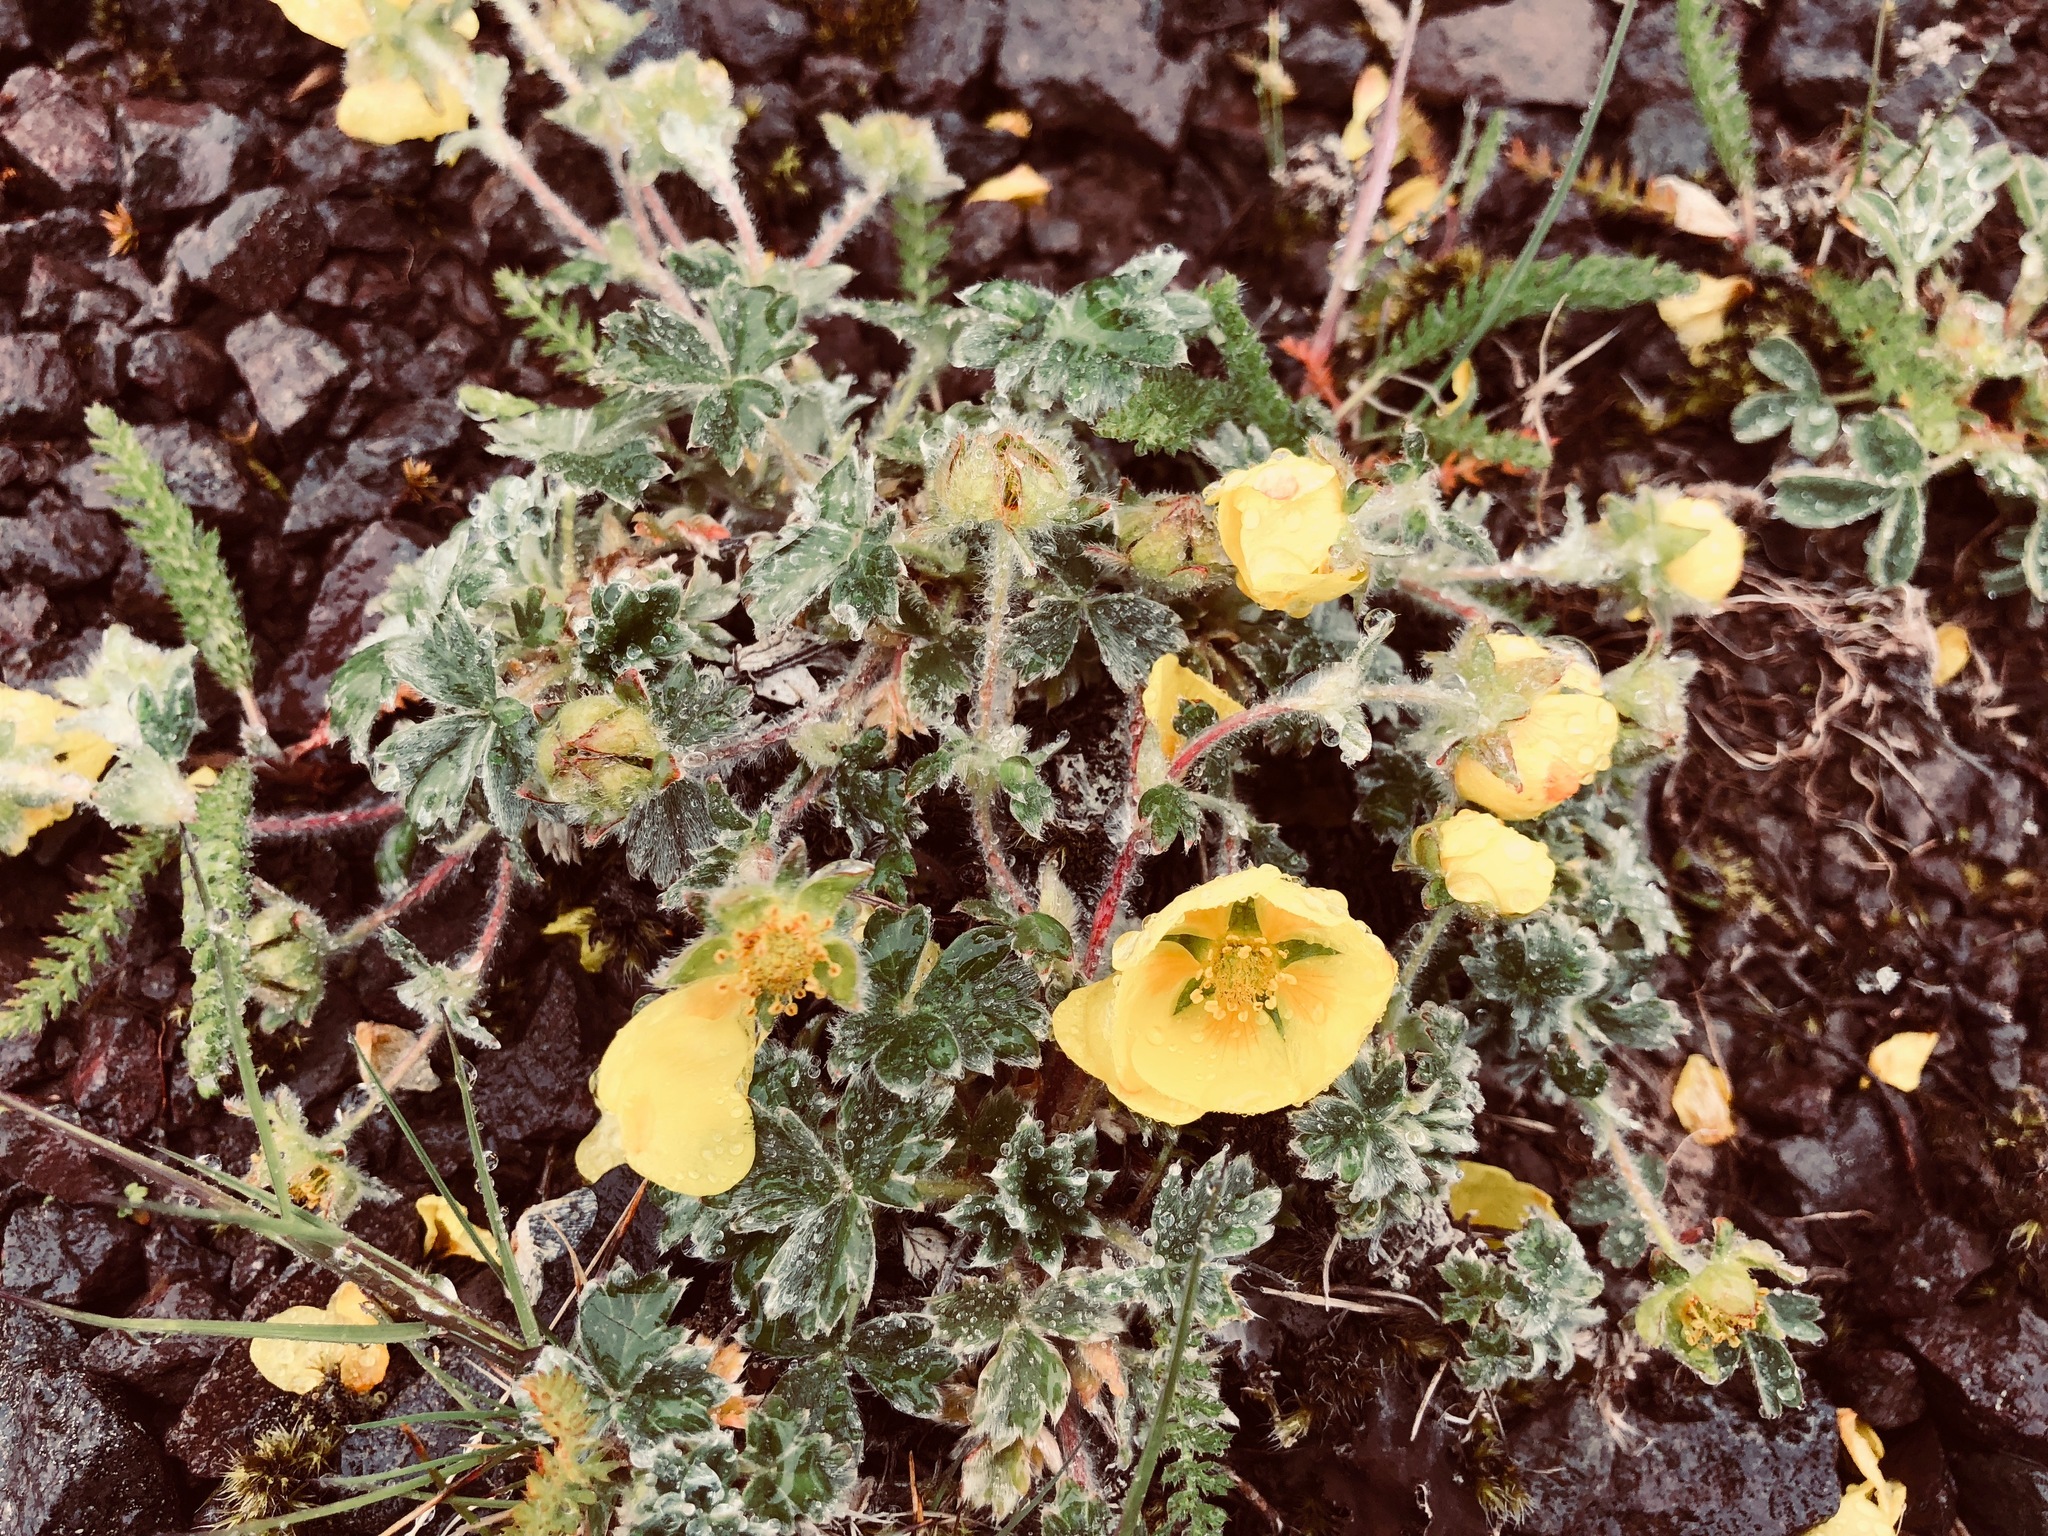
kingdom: Plantae
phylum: Tracheophyta
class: Magnoliopsida
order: Rosales
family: Rosaceae
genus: Potentilla
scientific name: Potentilla villosula
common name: Finely villous cinquefoil
